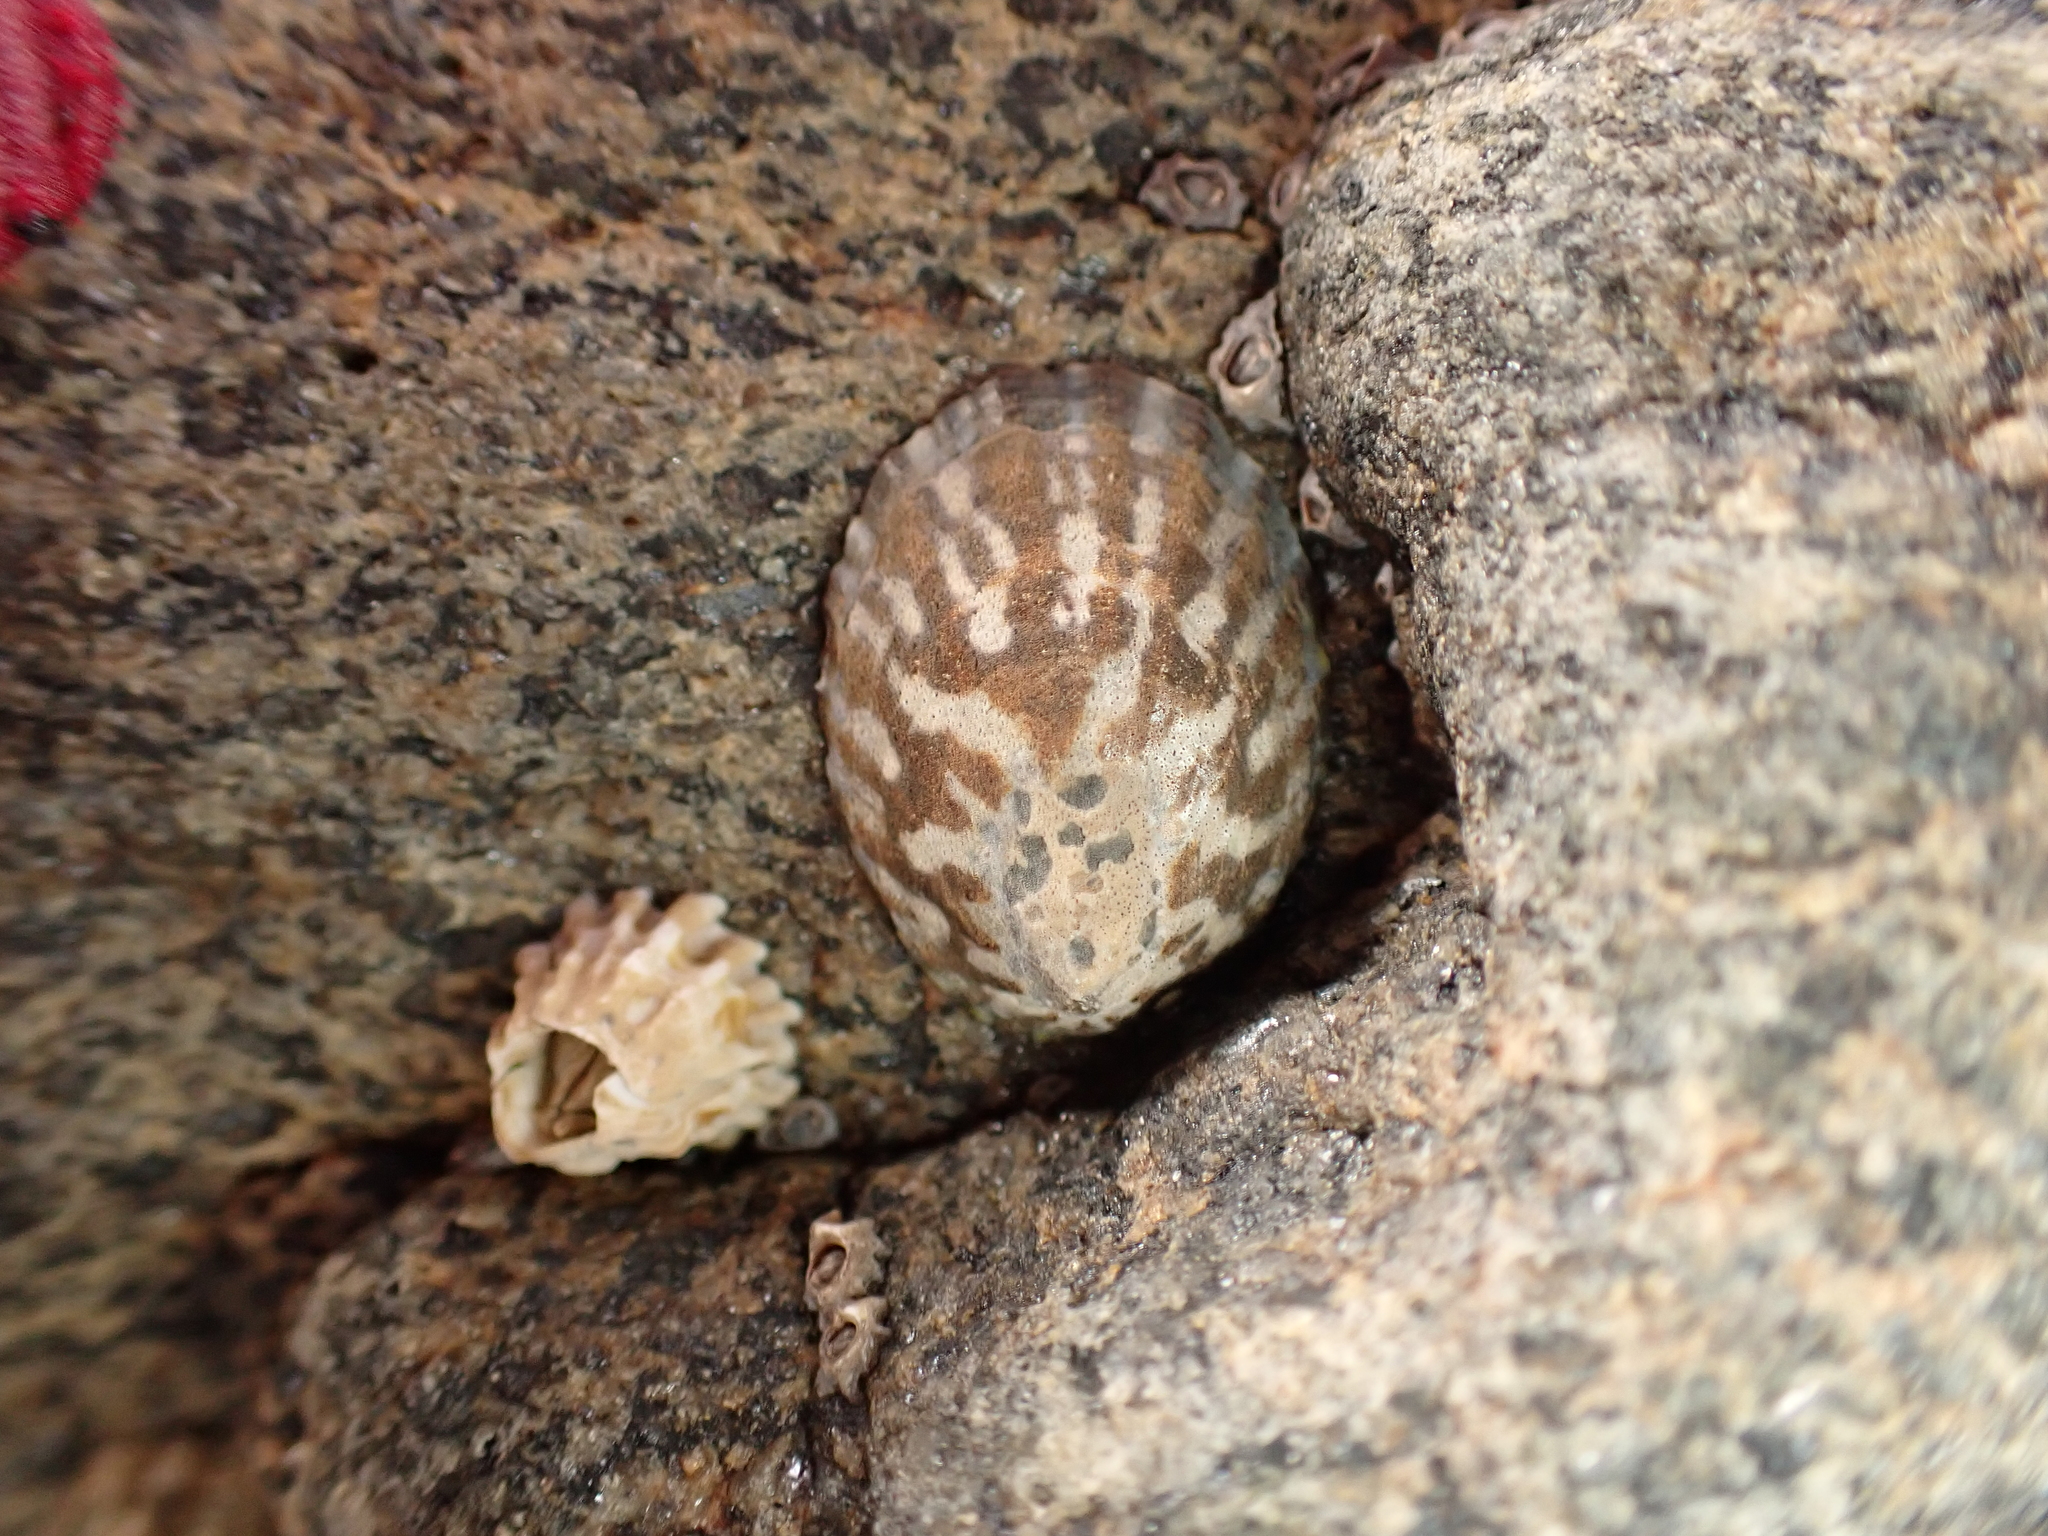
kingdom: Animalia
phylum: Mollusca
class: Gastropoda
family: Nacellidae
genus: Cellana
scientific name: Cellana strigilis
